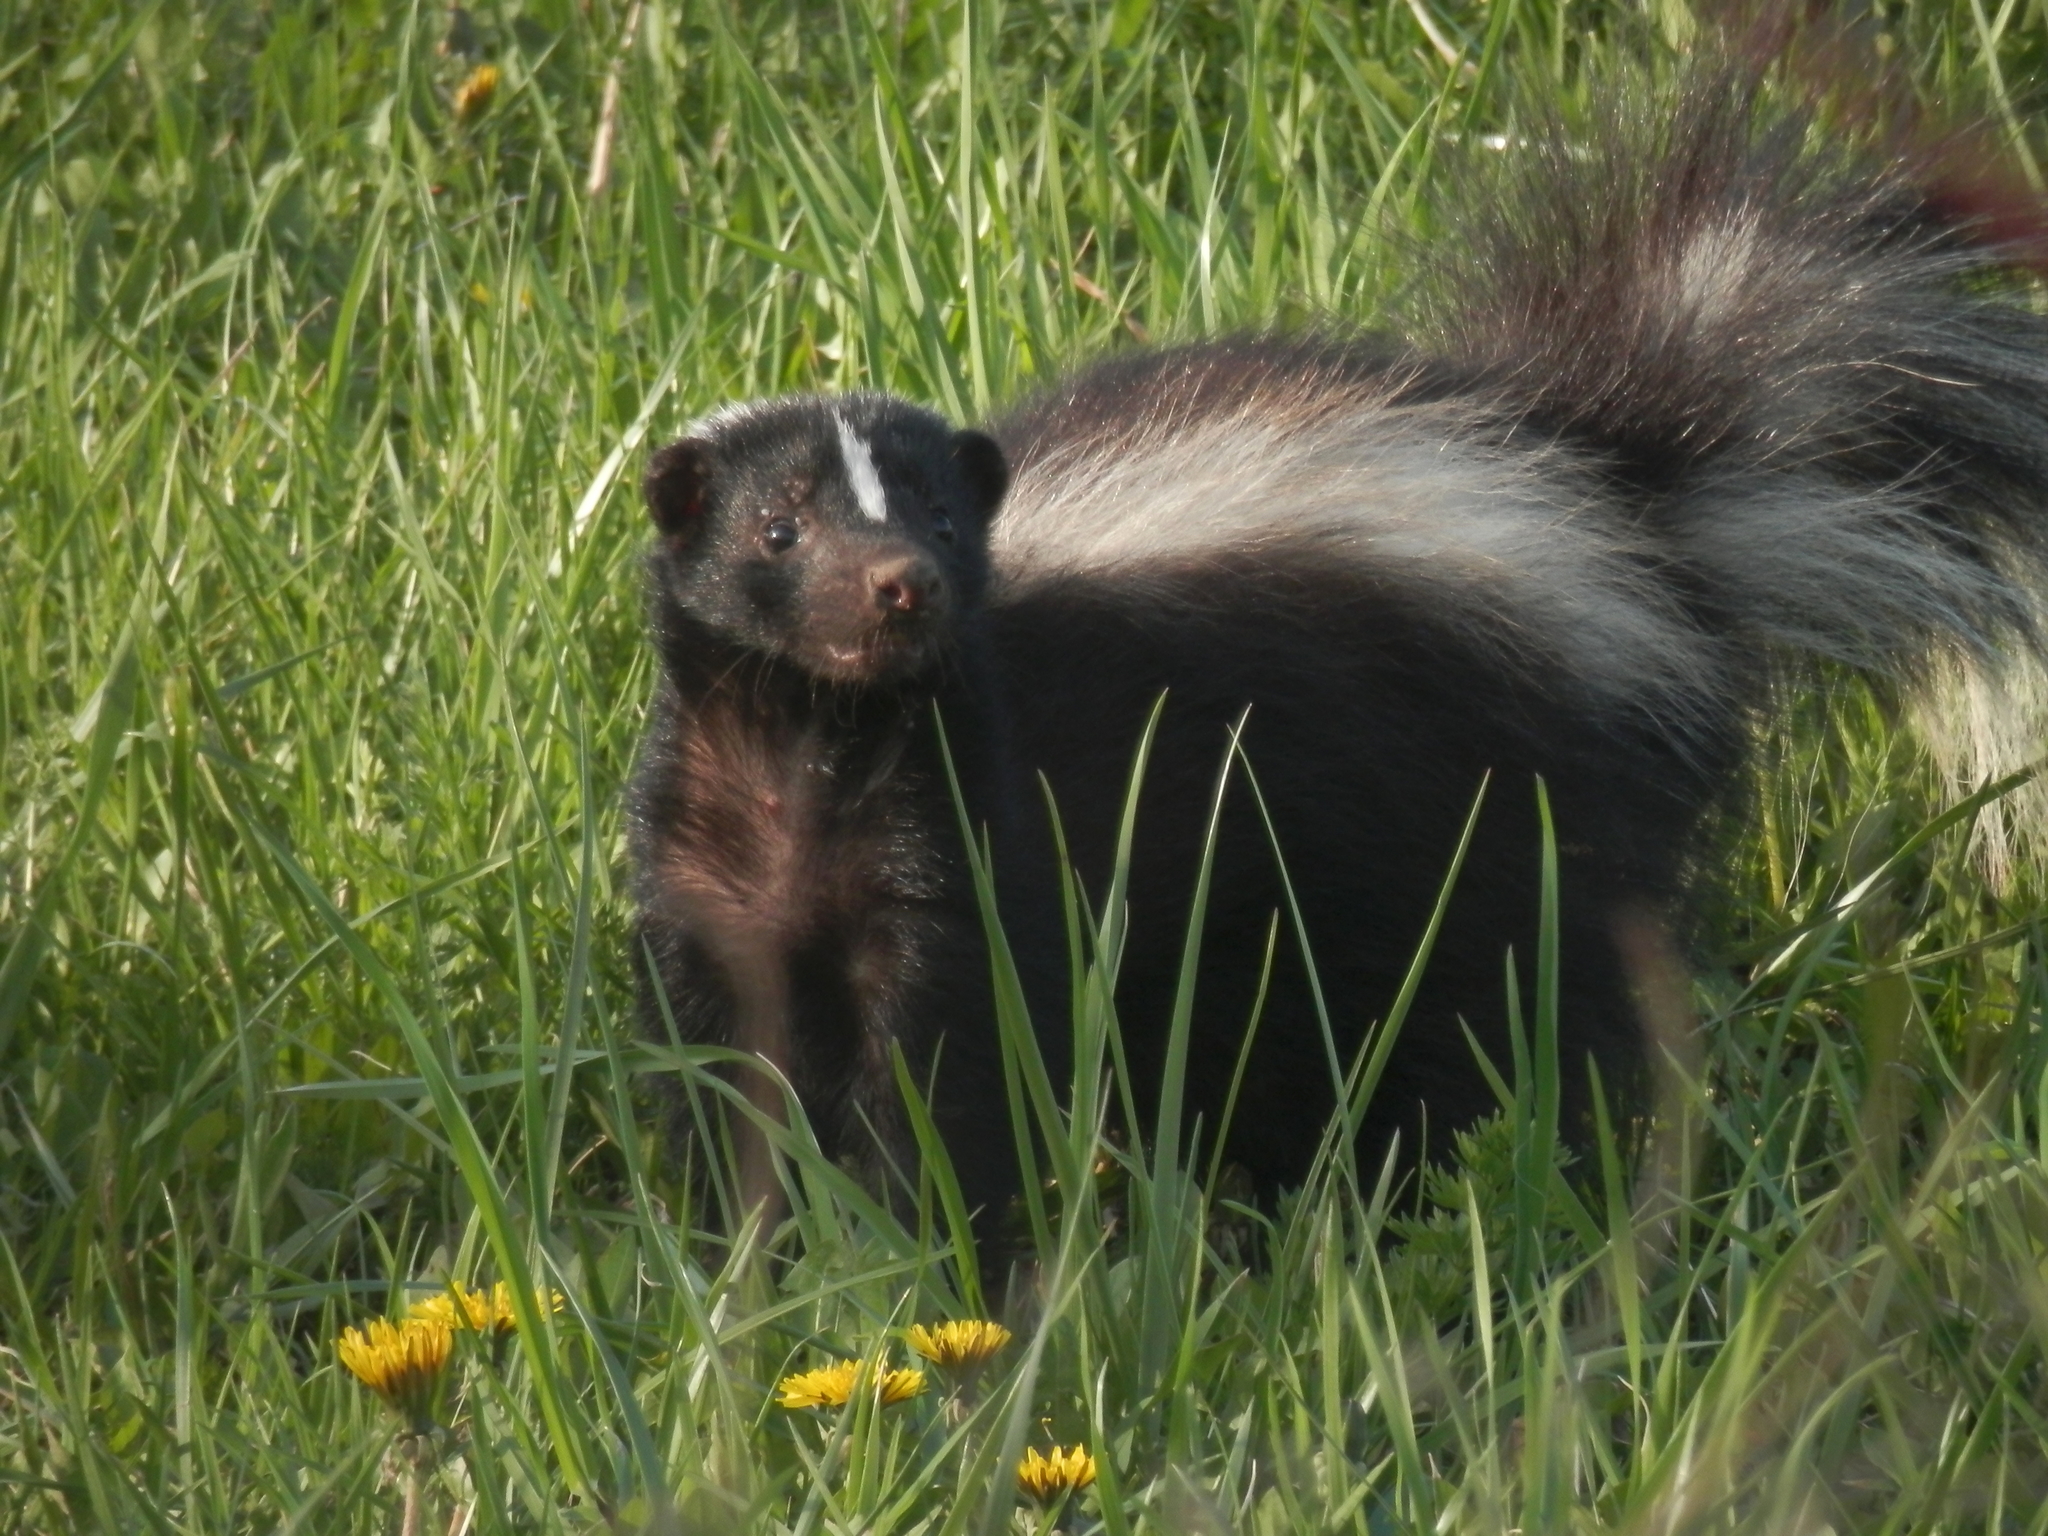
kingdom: Animalia
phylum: Chordata
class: Mammalia
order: Carnivora
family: Mephitidae
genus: Mephitis
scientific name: Mephitis mephitis
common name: Striped skunk
